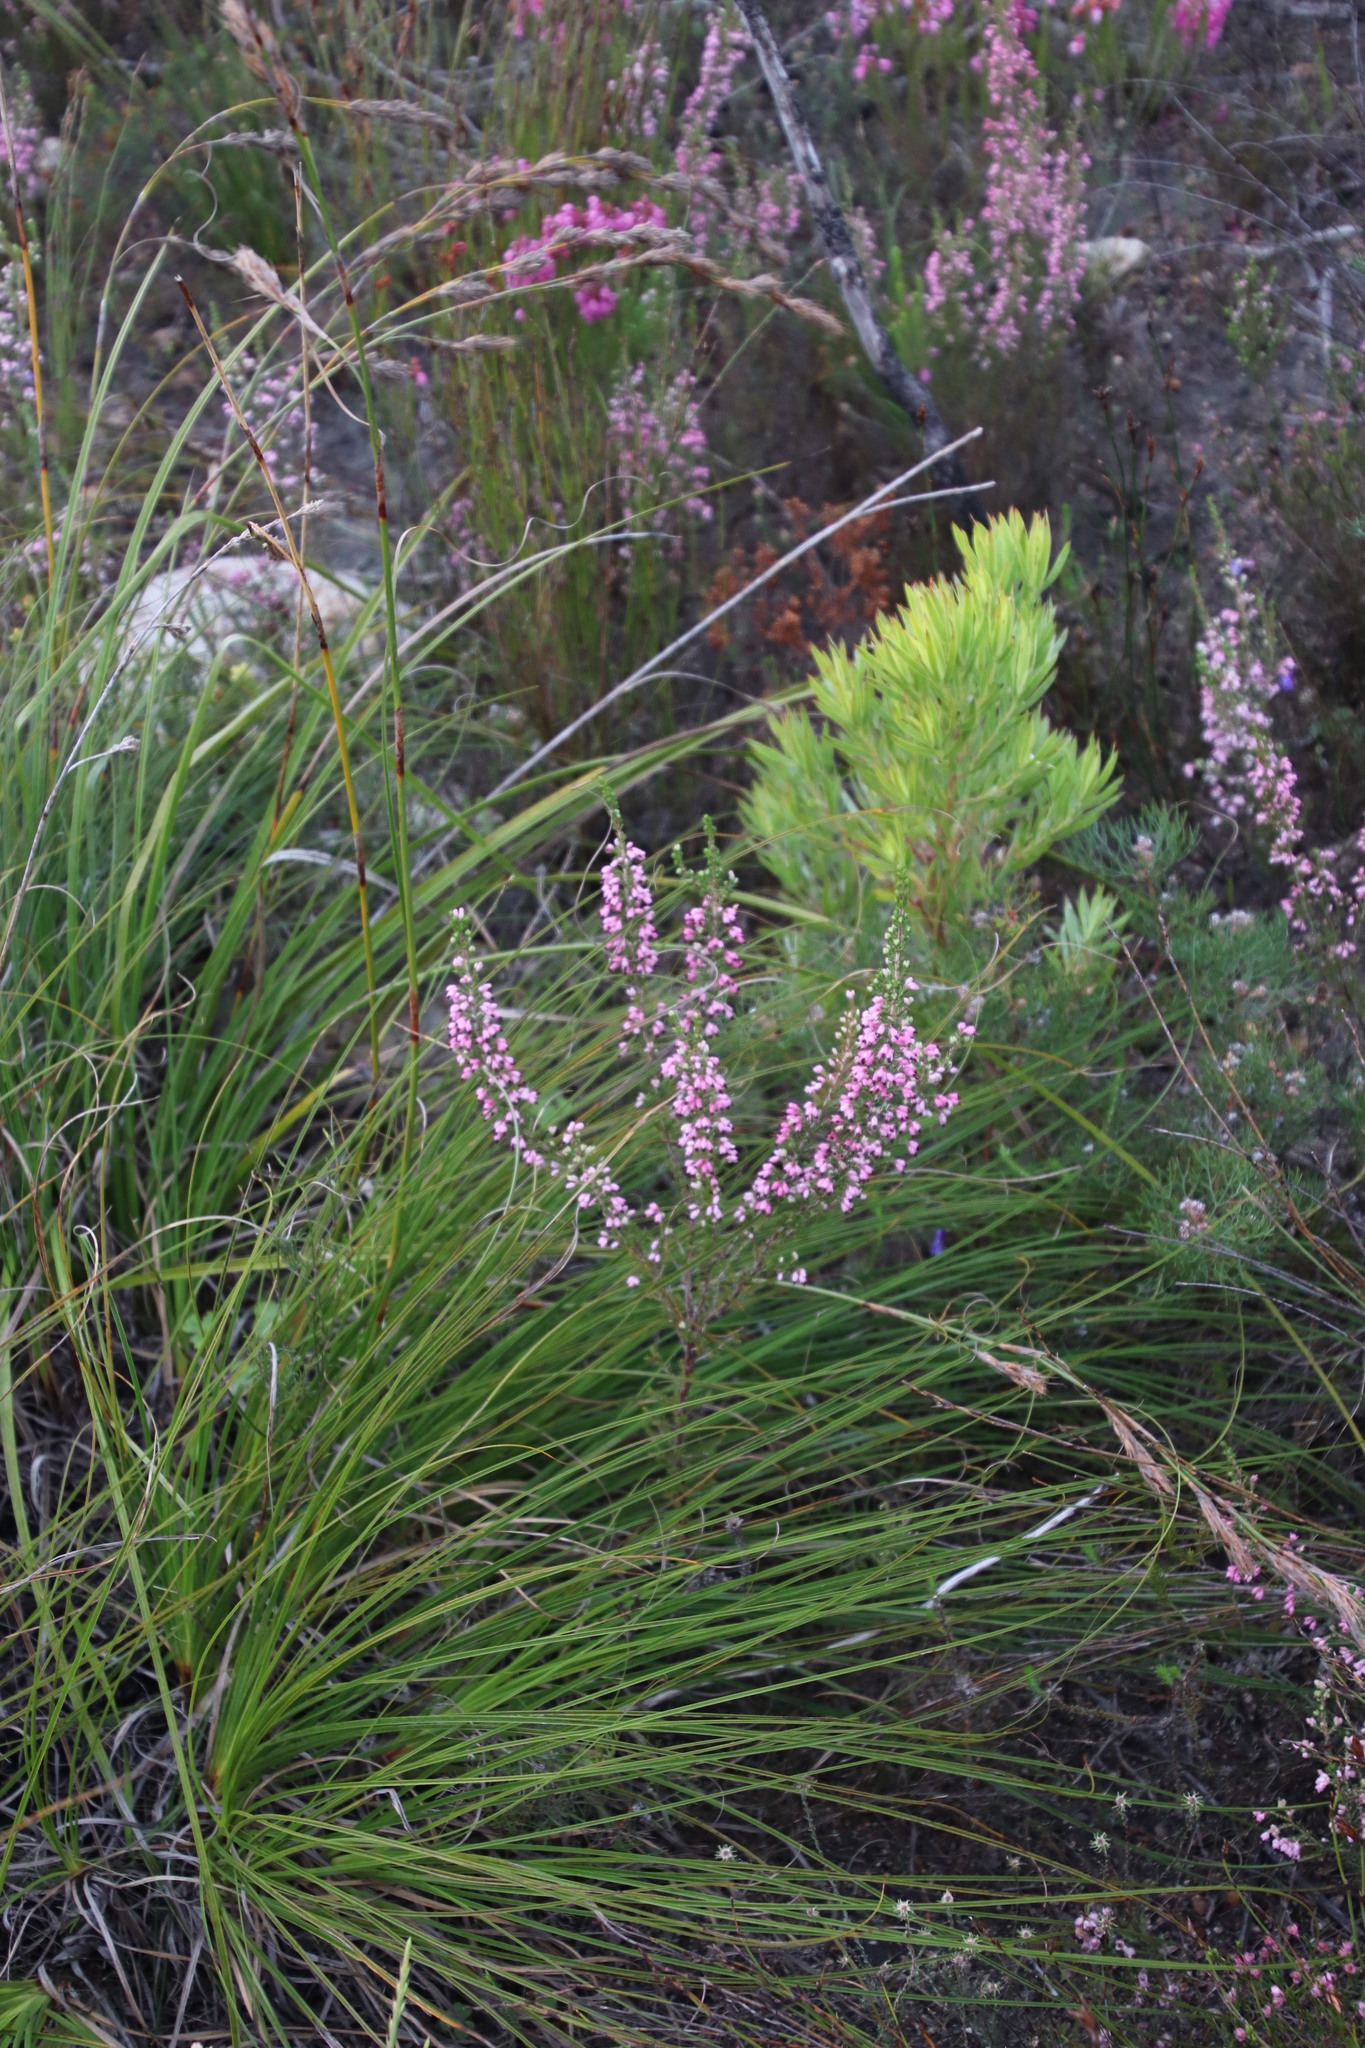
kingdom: Plantae
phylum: Tracheophyta
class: Magnoliopsida
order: Ericales
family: Ericaceae
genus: Erica
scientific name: Erica placentiflora
